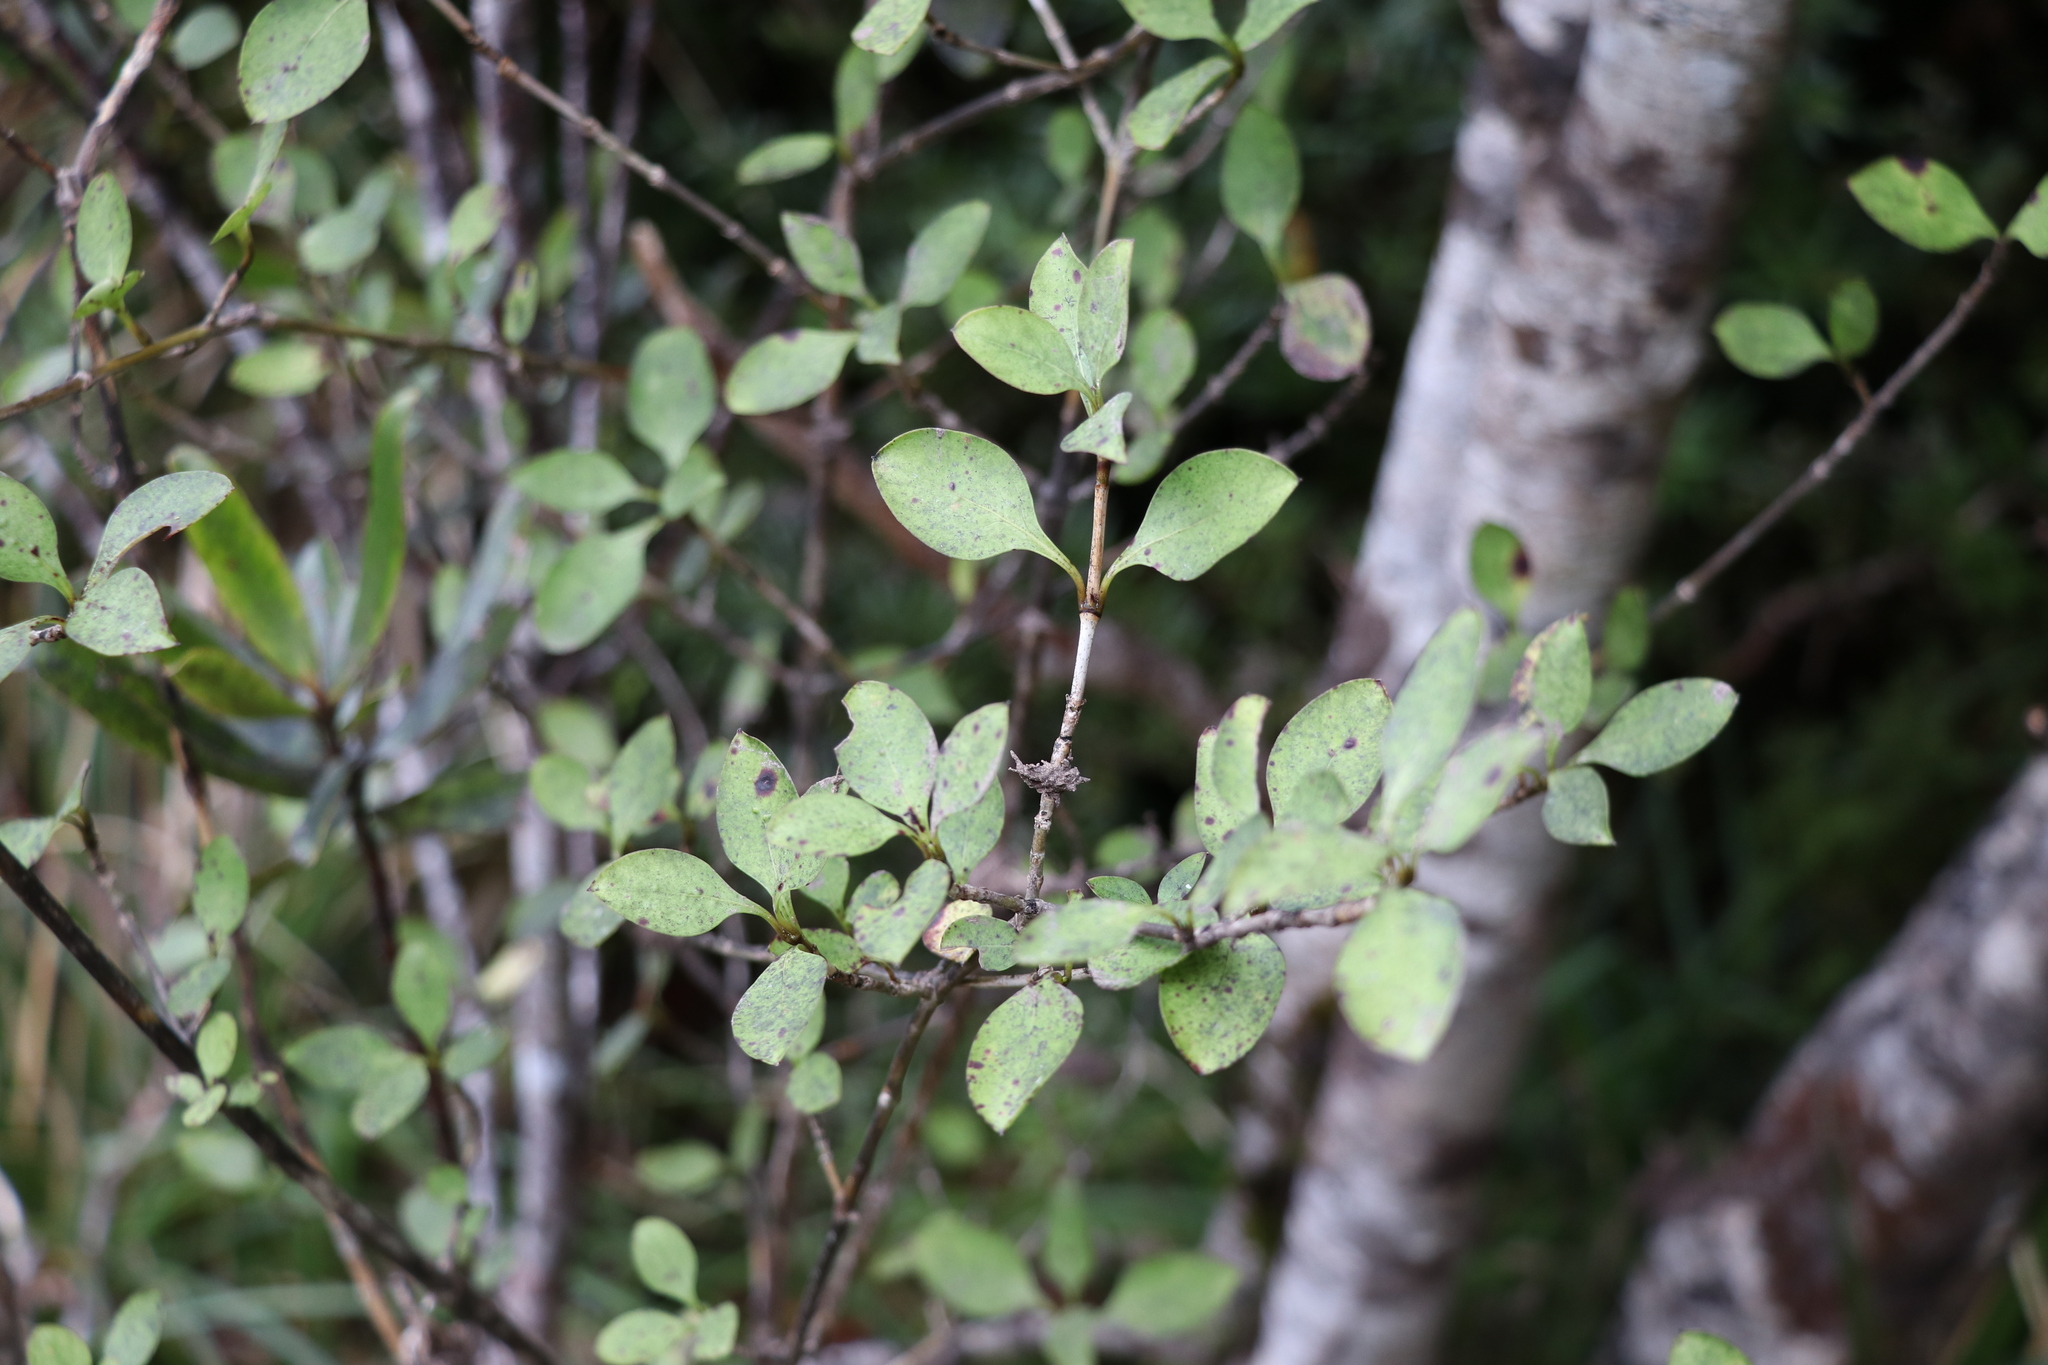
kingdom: Plantae
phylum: Tracheophyta
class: Magnoliopsida
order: Gentianales
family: Rubiaceae
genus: Coprosma
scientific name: Coprosma foetidissima
